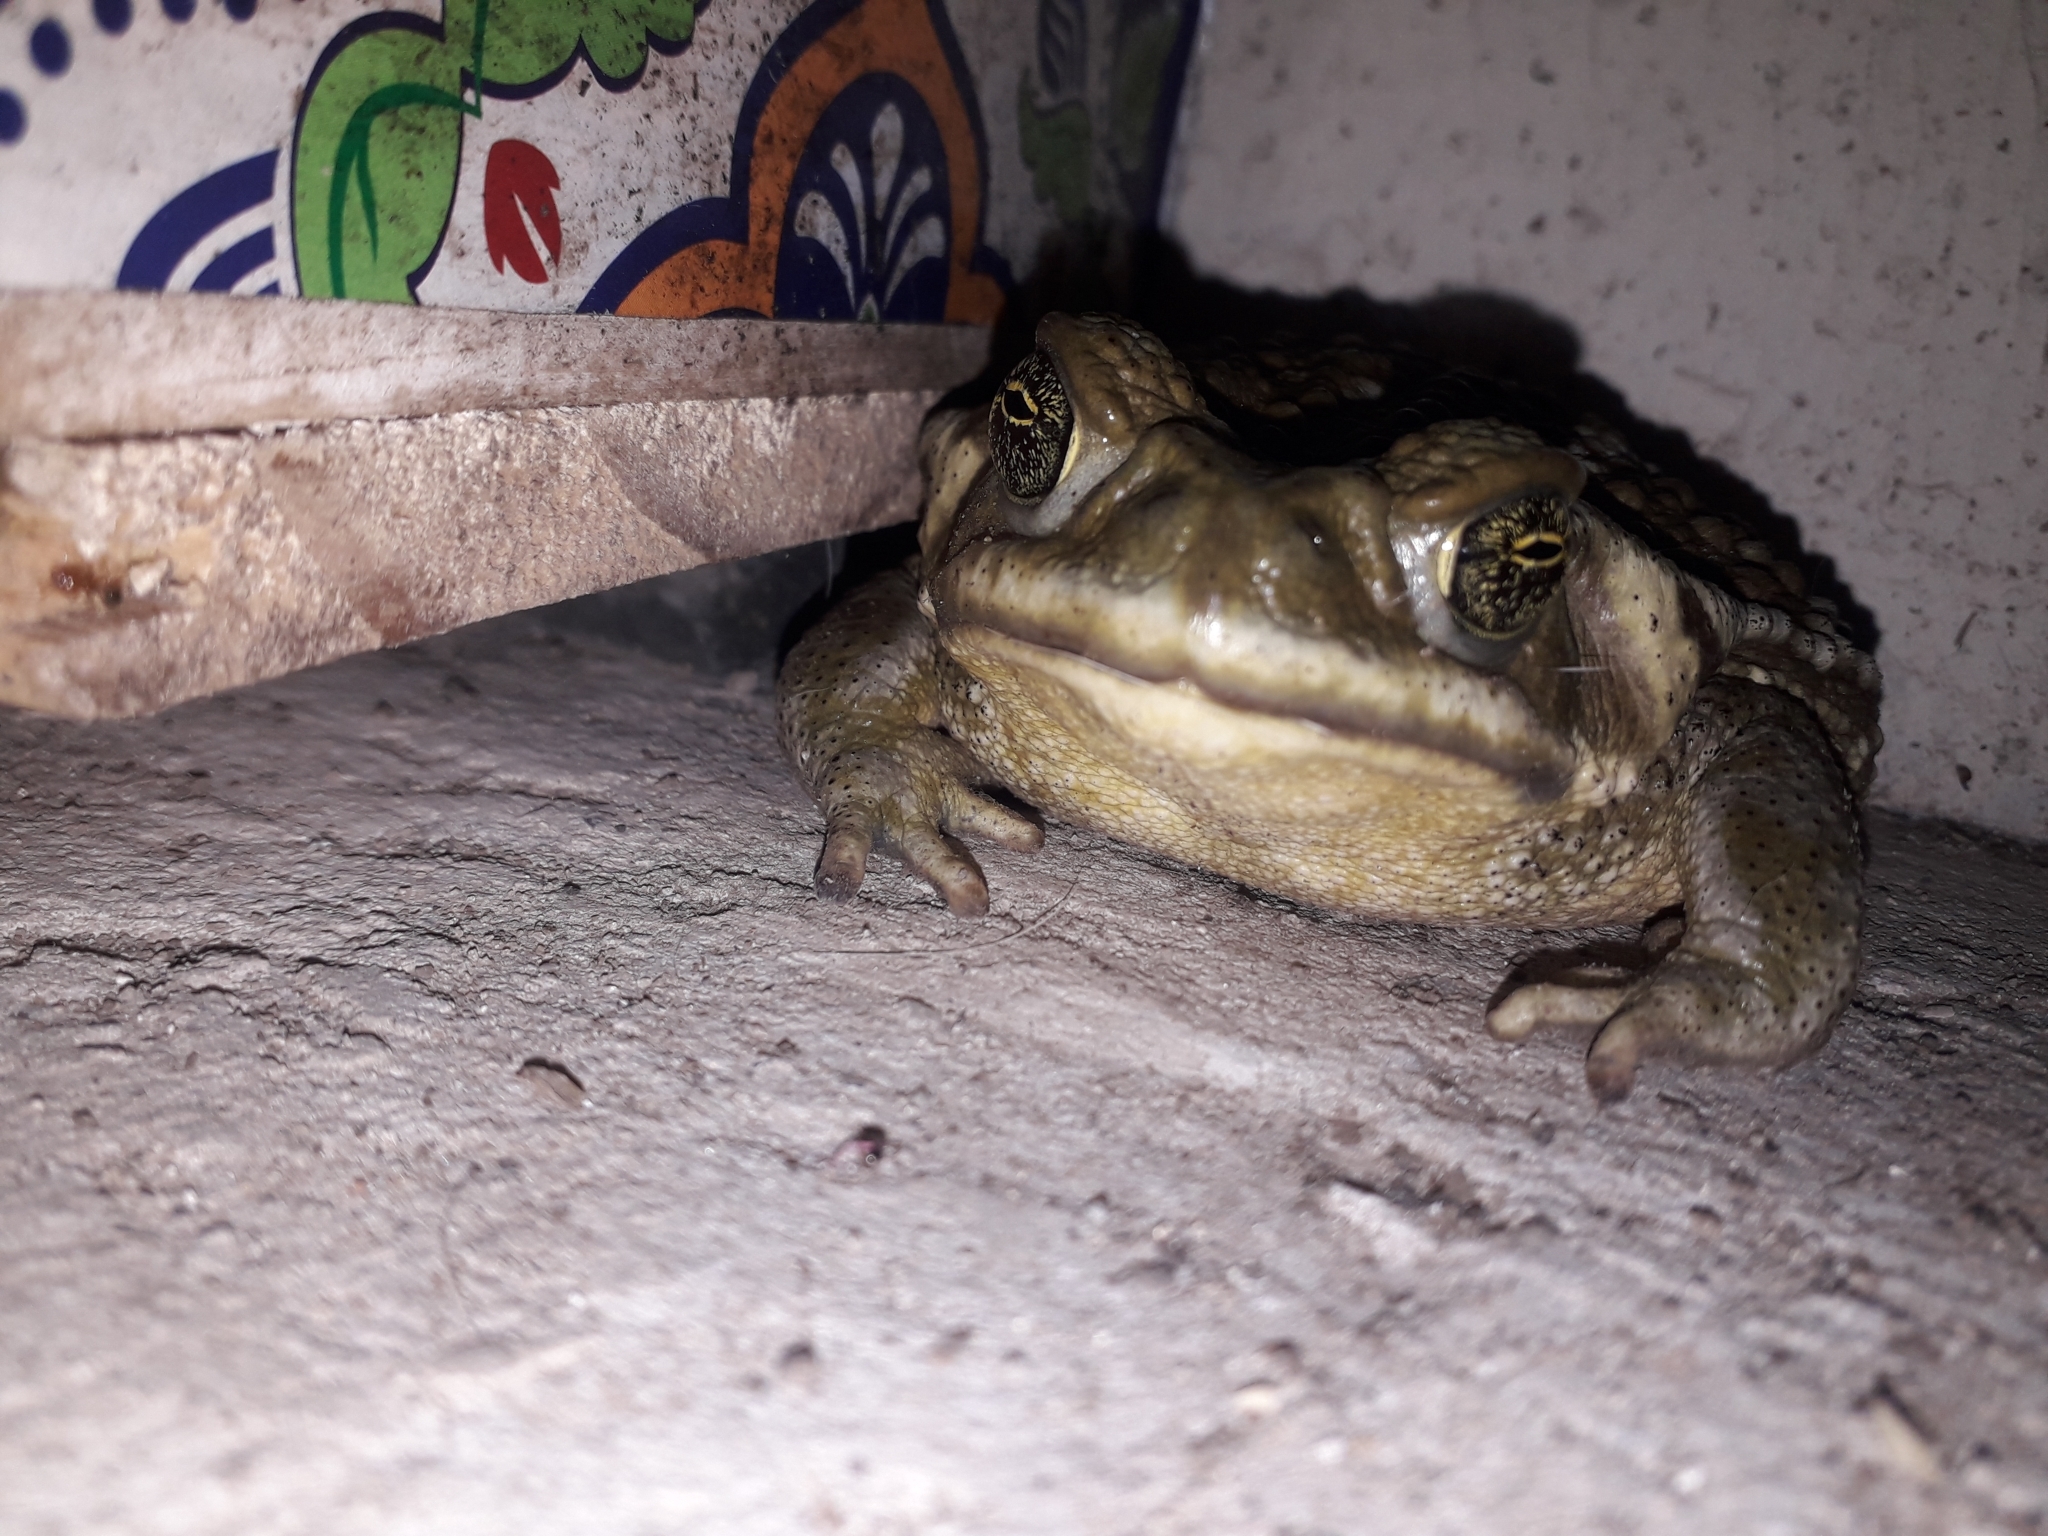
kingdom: Animalia
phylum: Chordata
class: Amphibia
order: Anura
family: Bufonidae
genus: Rhinella
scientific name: Rhinella arenarum
